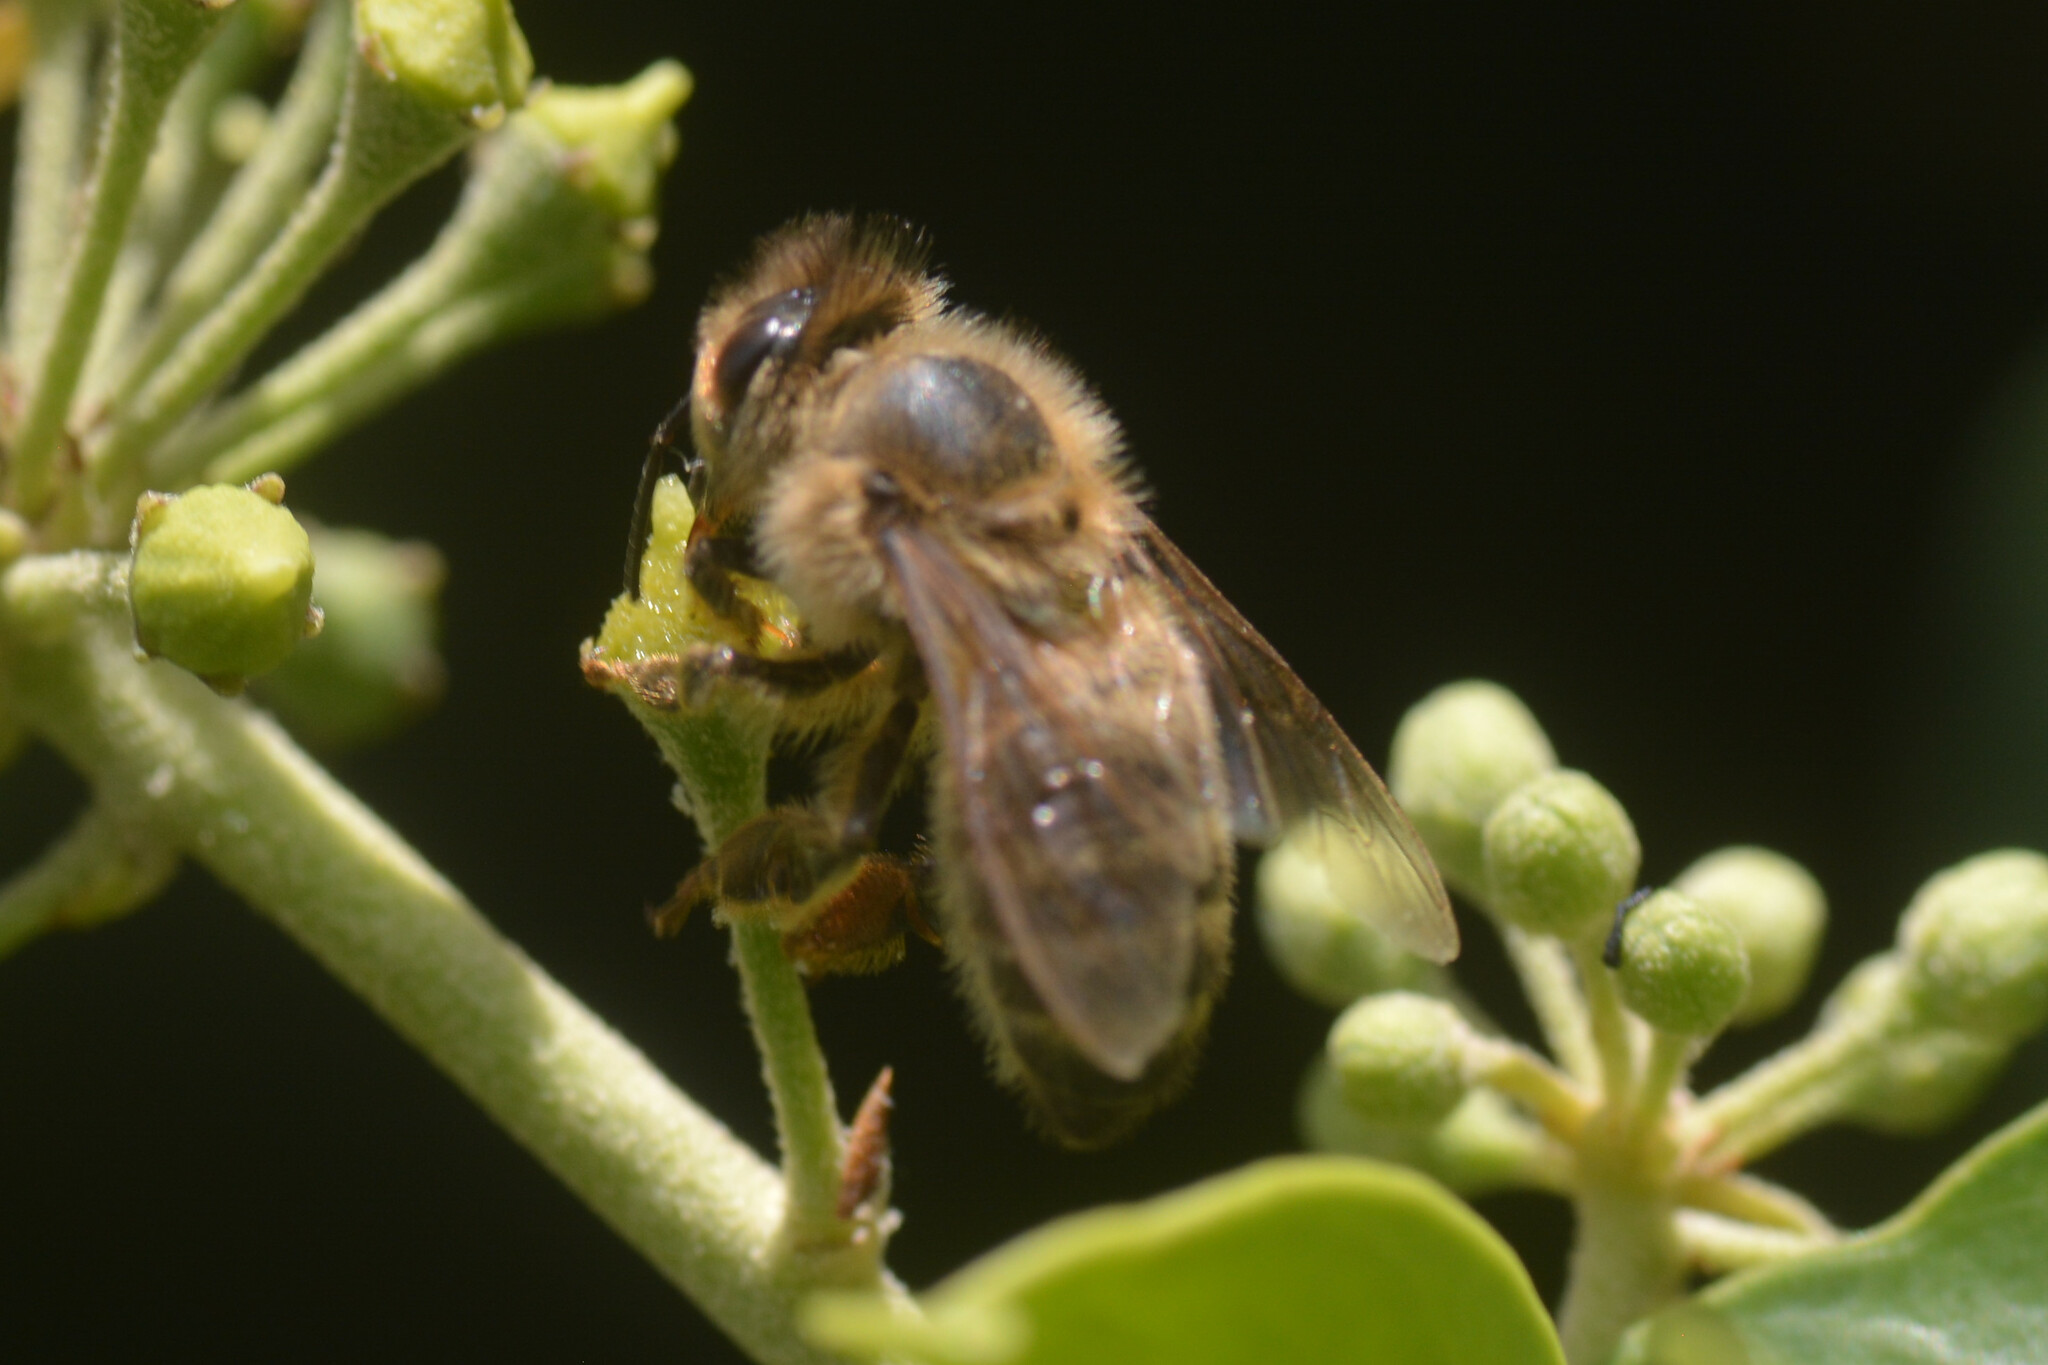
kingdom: Animalia
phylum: Arthropoda
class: Insecta
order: Hymenoptera
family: Apidae
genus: Apis
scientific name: Apis mellifera
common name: Honey bee
